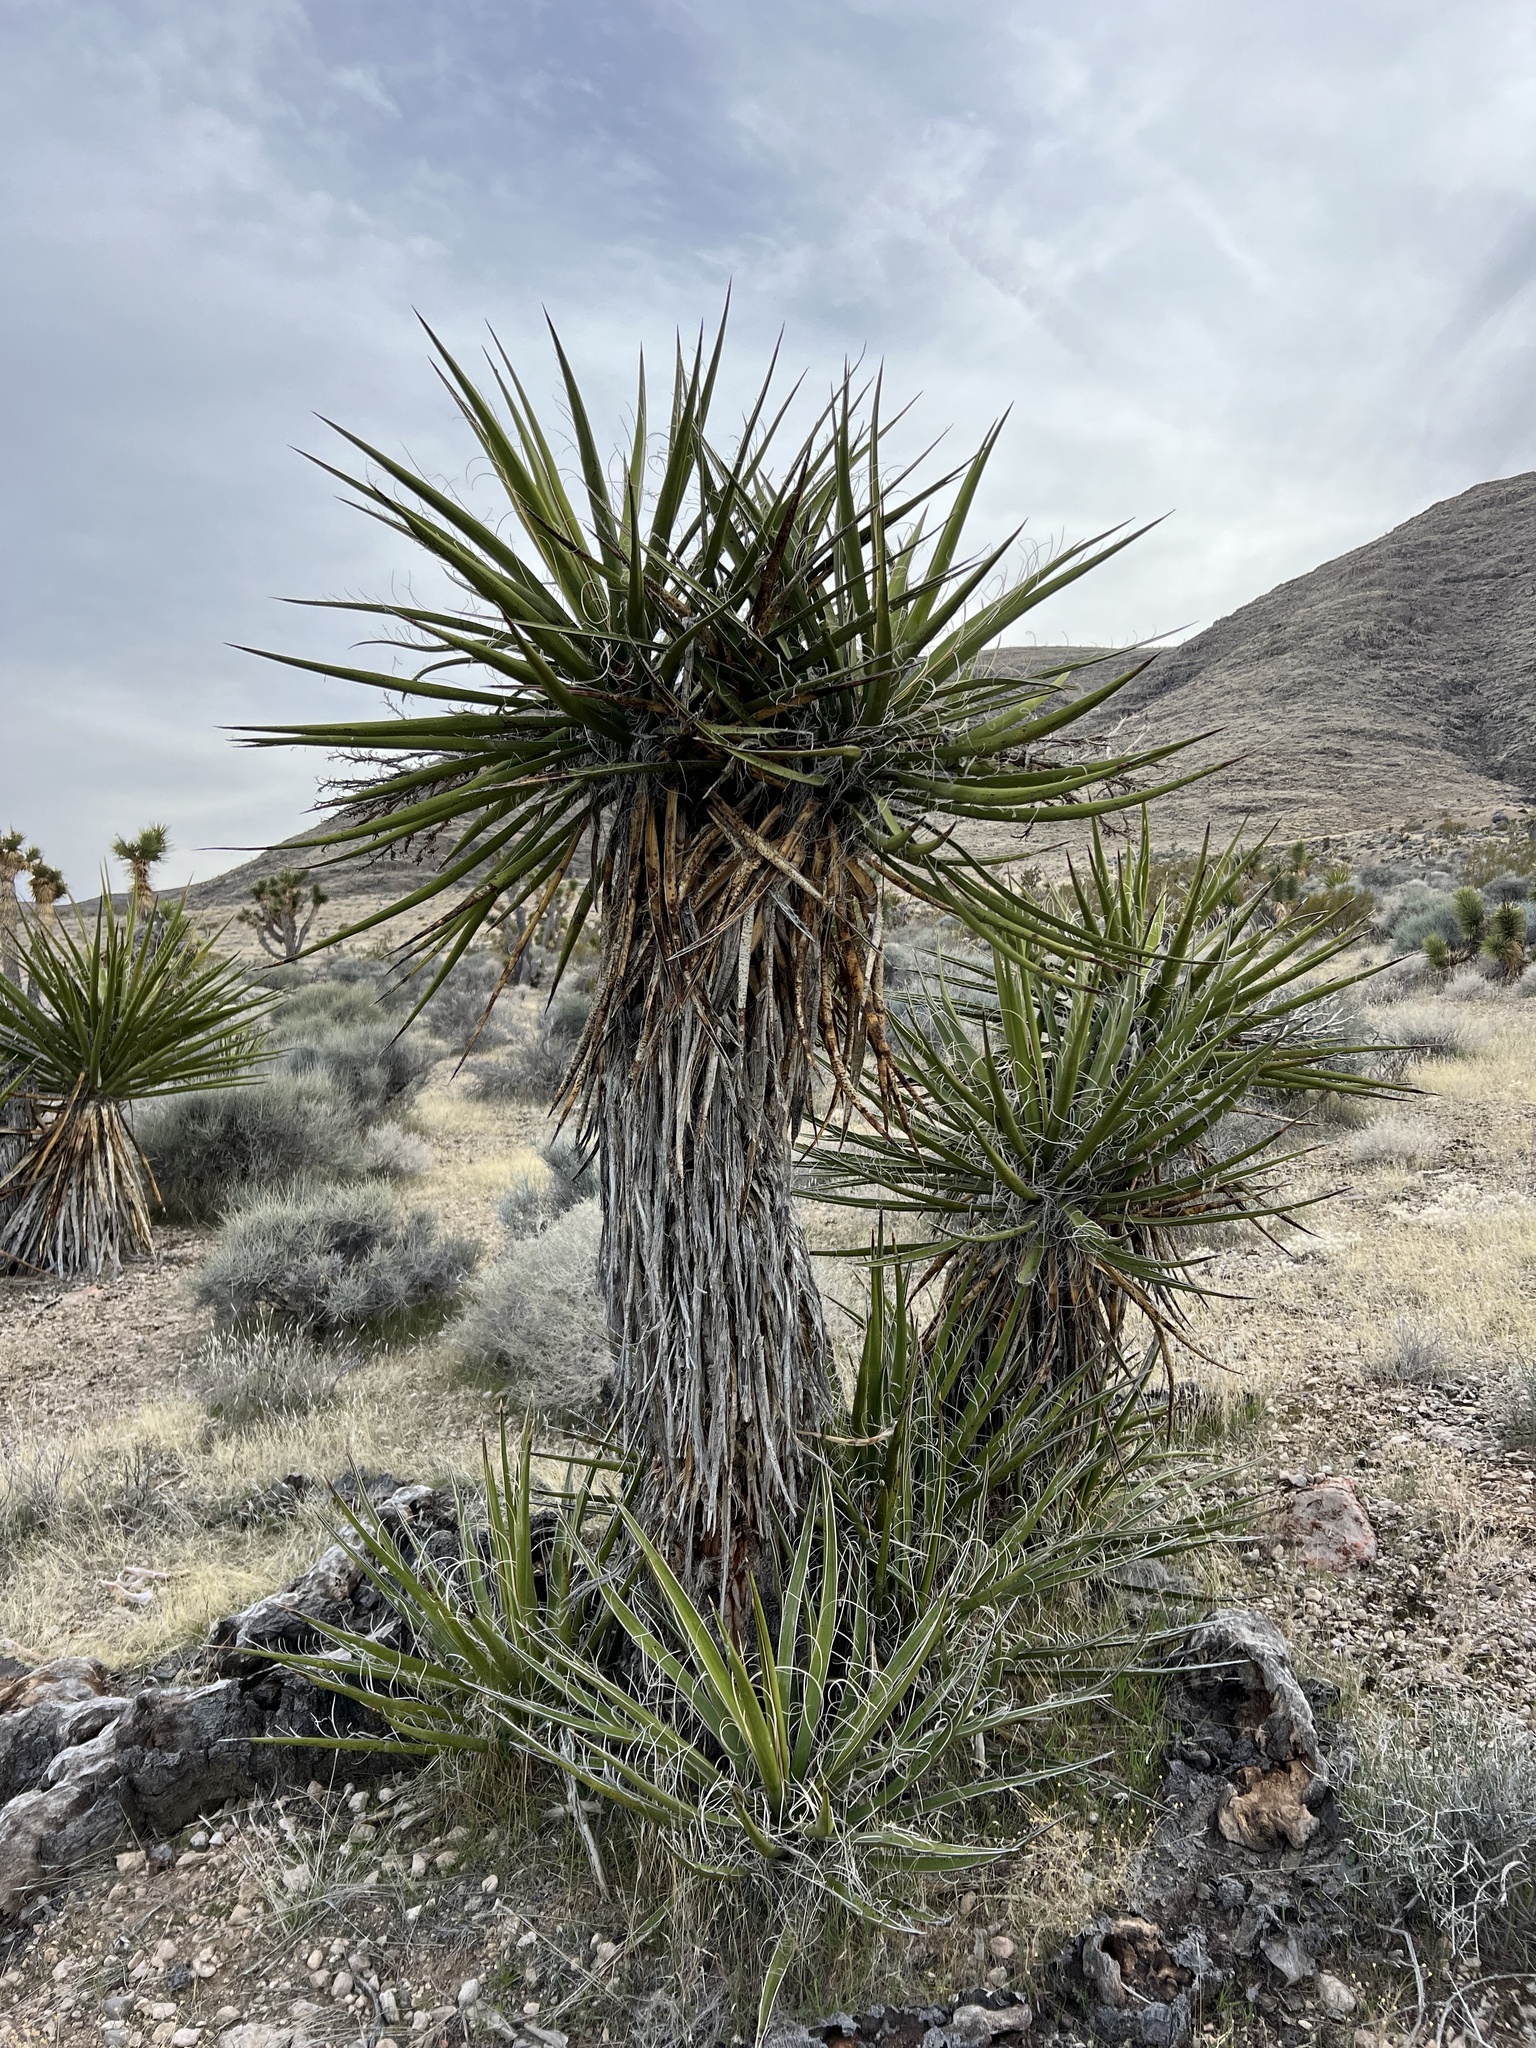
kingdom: Plantae
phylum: Tracheophyta
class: Liliopsida
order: Asparagales
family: Asparagaceae
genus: Yucca
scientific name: Yucca schidigera
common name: Mojave yucca
